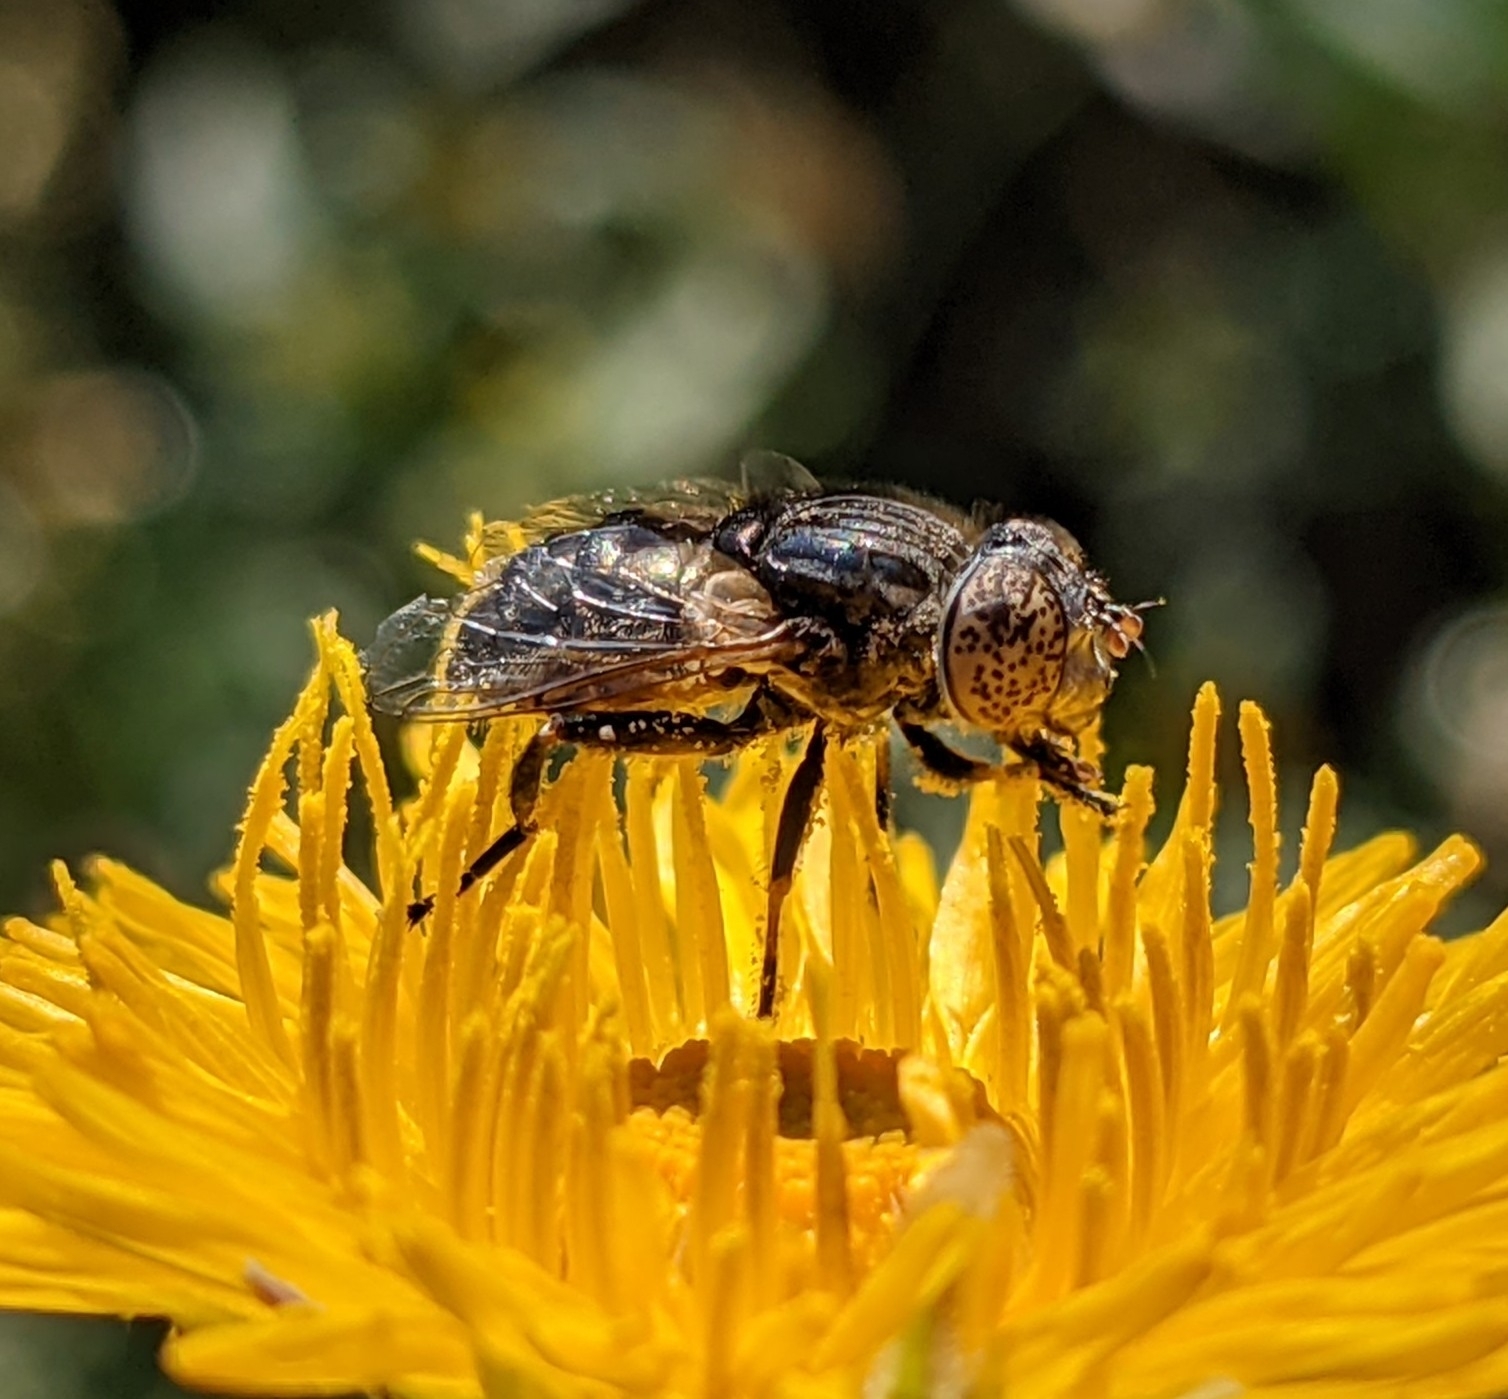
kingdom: Animalia
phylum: Arthropoda
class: Insecta
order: Diptera
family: Syrphidae
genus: Eristalinus
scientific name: Eristalinus aeneus
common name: Syrphid fly
